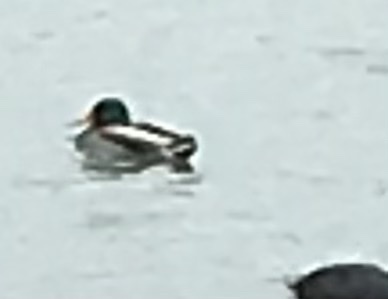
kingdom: Animalia
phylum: Chordata
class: Aves
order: Anseriformes
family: Anatidae
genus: Anas
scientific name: Anas platyrhynchos
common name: Mallard
